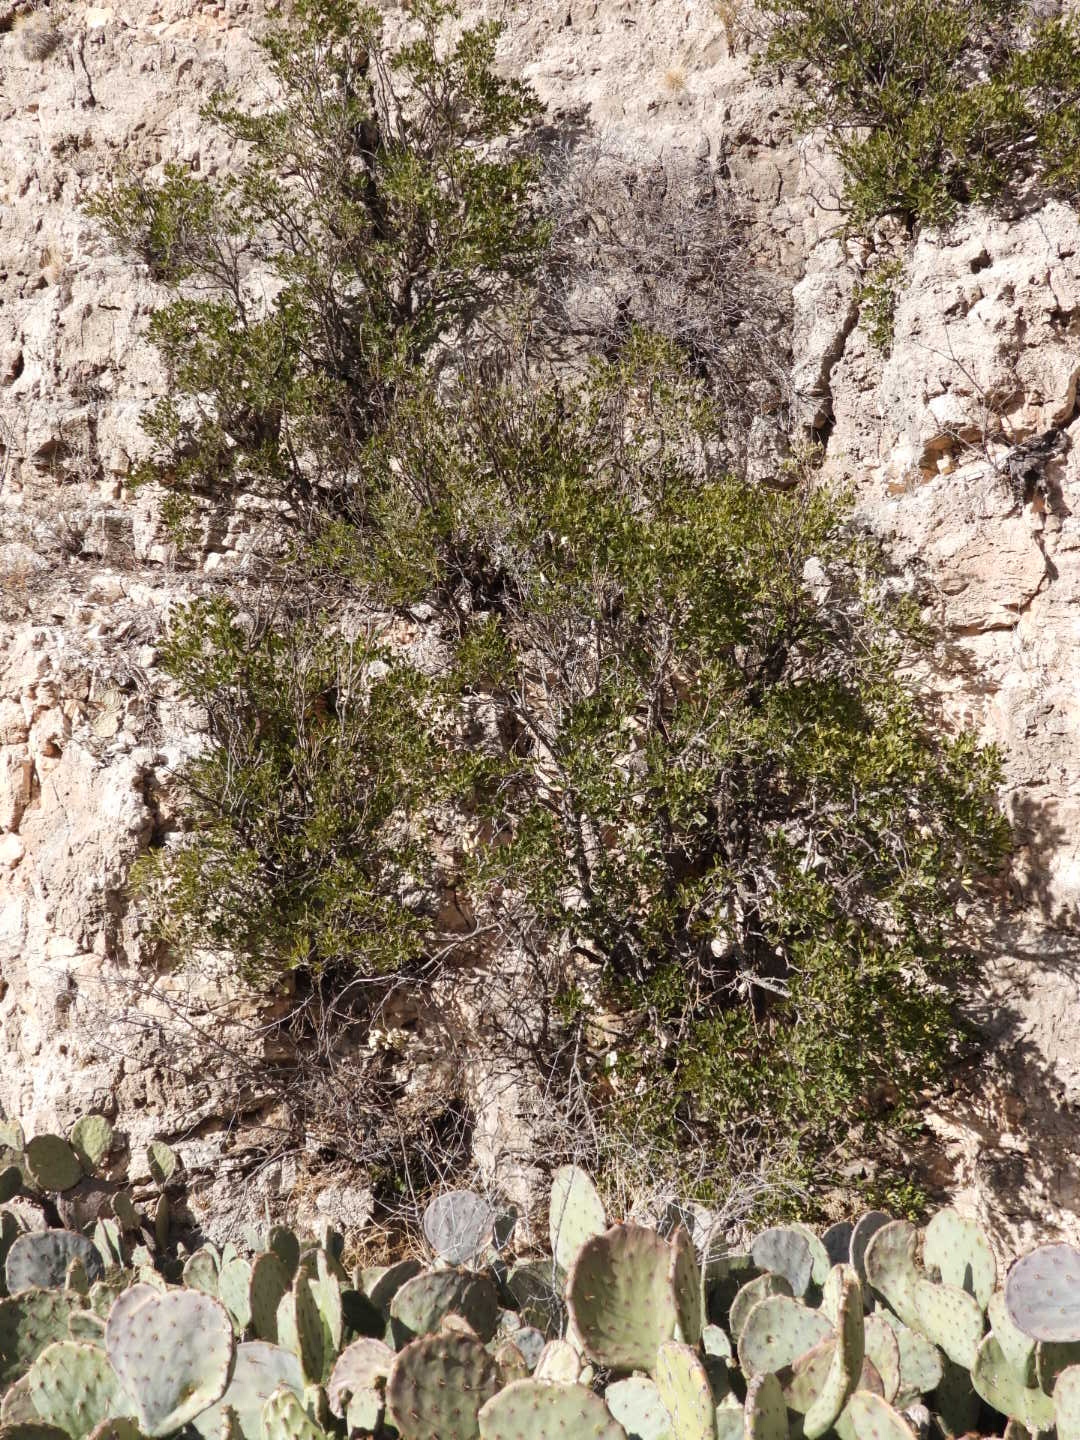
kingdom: Plantae
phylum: Tracheophyta
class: Magnoliopsida
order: Fabales
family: Fabaceae
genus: Dermatophyllum
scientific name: Dermatophyllum secundiflorum
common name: Texas-mountain-laurel
